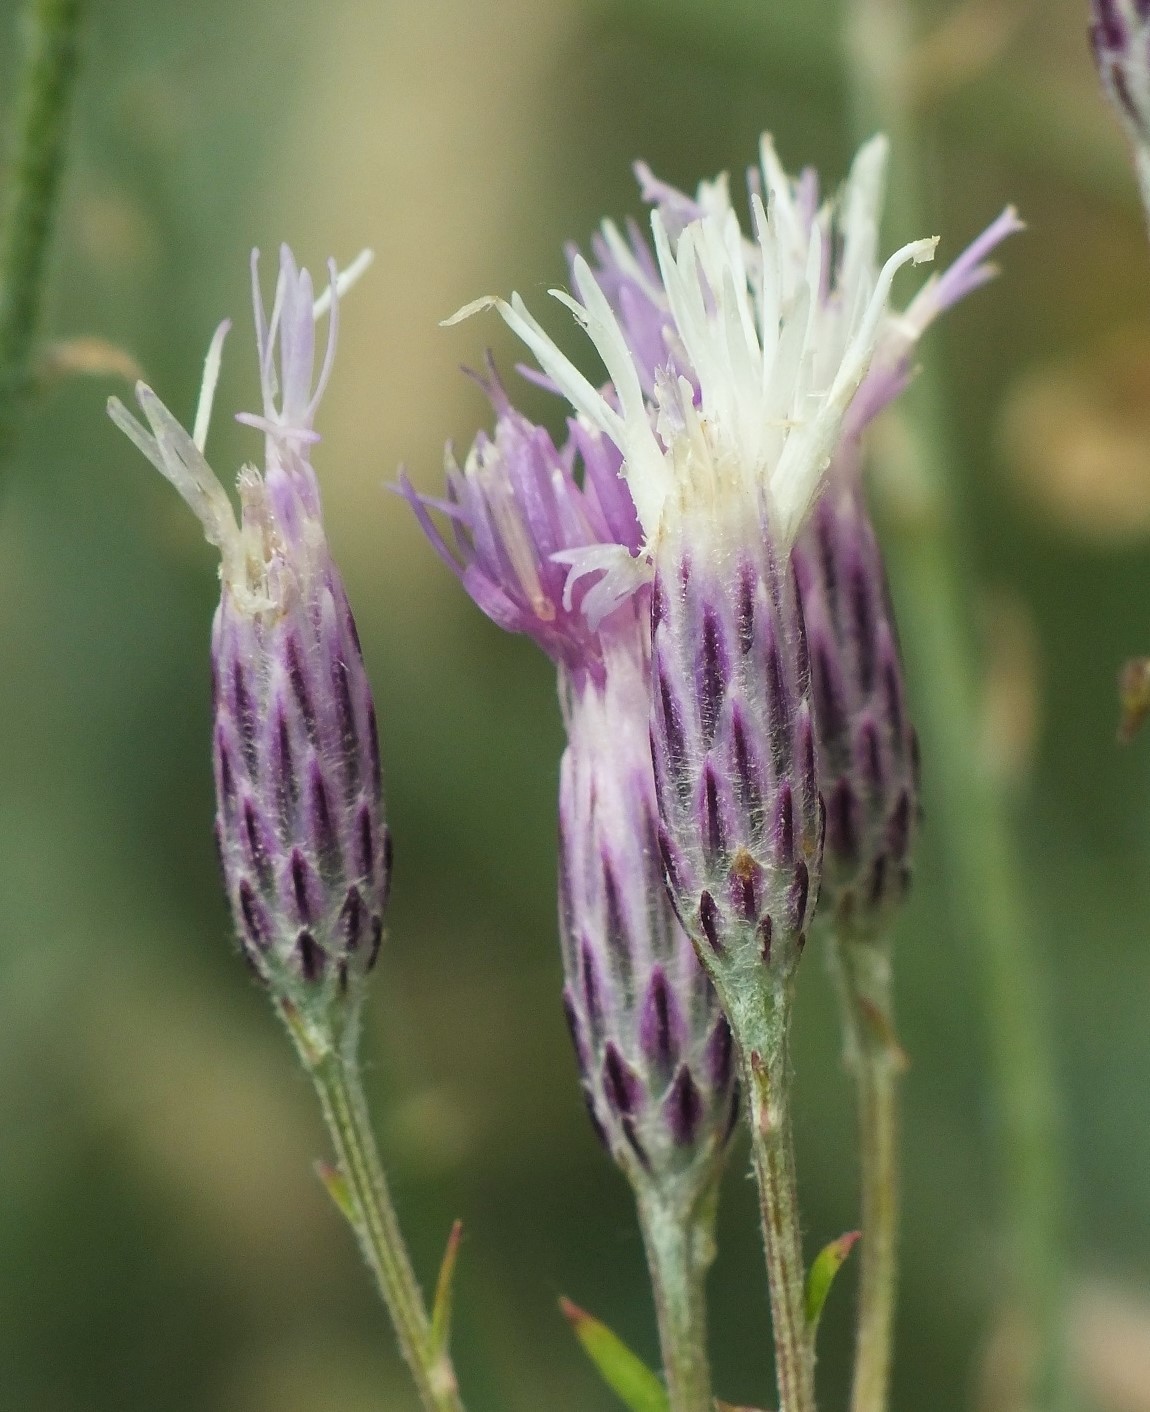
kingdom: Plantae
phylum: Tracheophyta
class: Magnoliopsida
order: Asterales
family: Asteraceae
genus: Jurinea
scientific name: Jurinea multiflora
